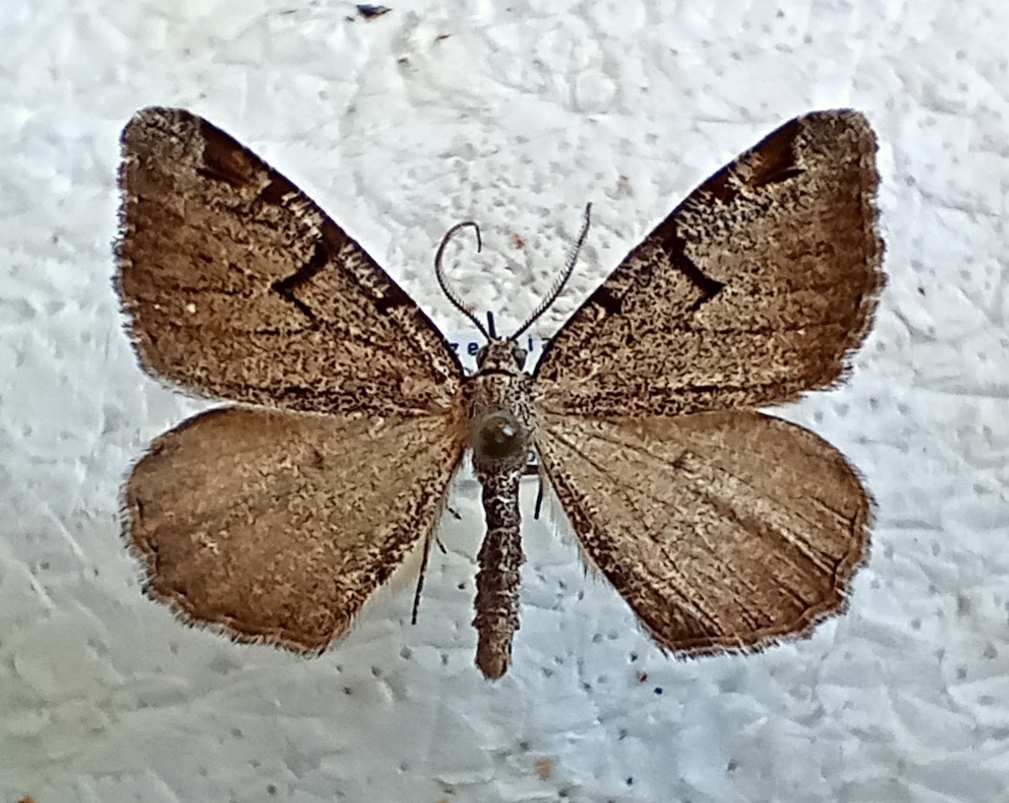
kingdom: Animalia
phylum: Arthropoda
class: Insecta
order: Lepidoptera
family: Geometridae
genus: Macaria
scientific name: Macaria wauaria
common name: V-moth
